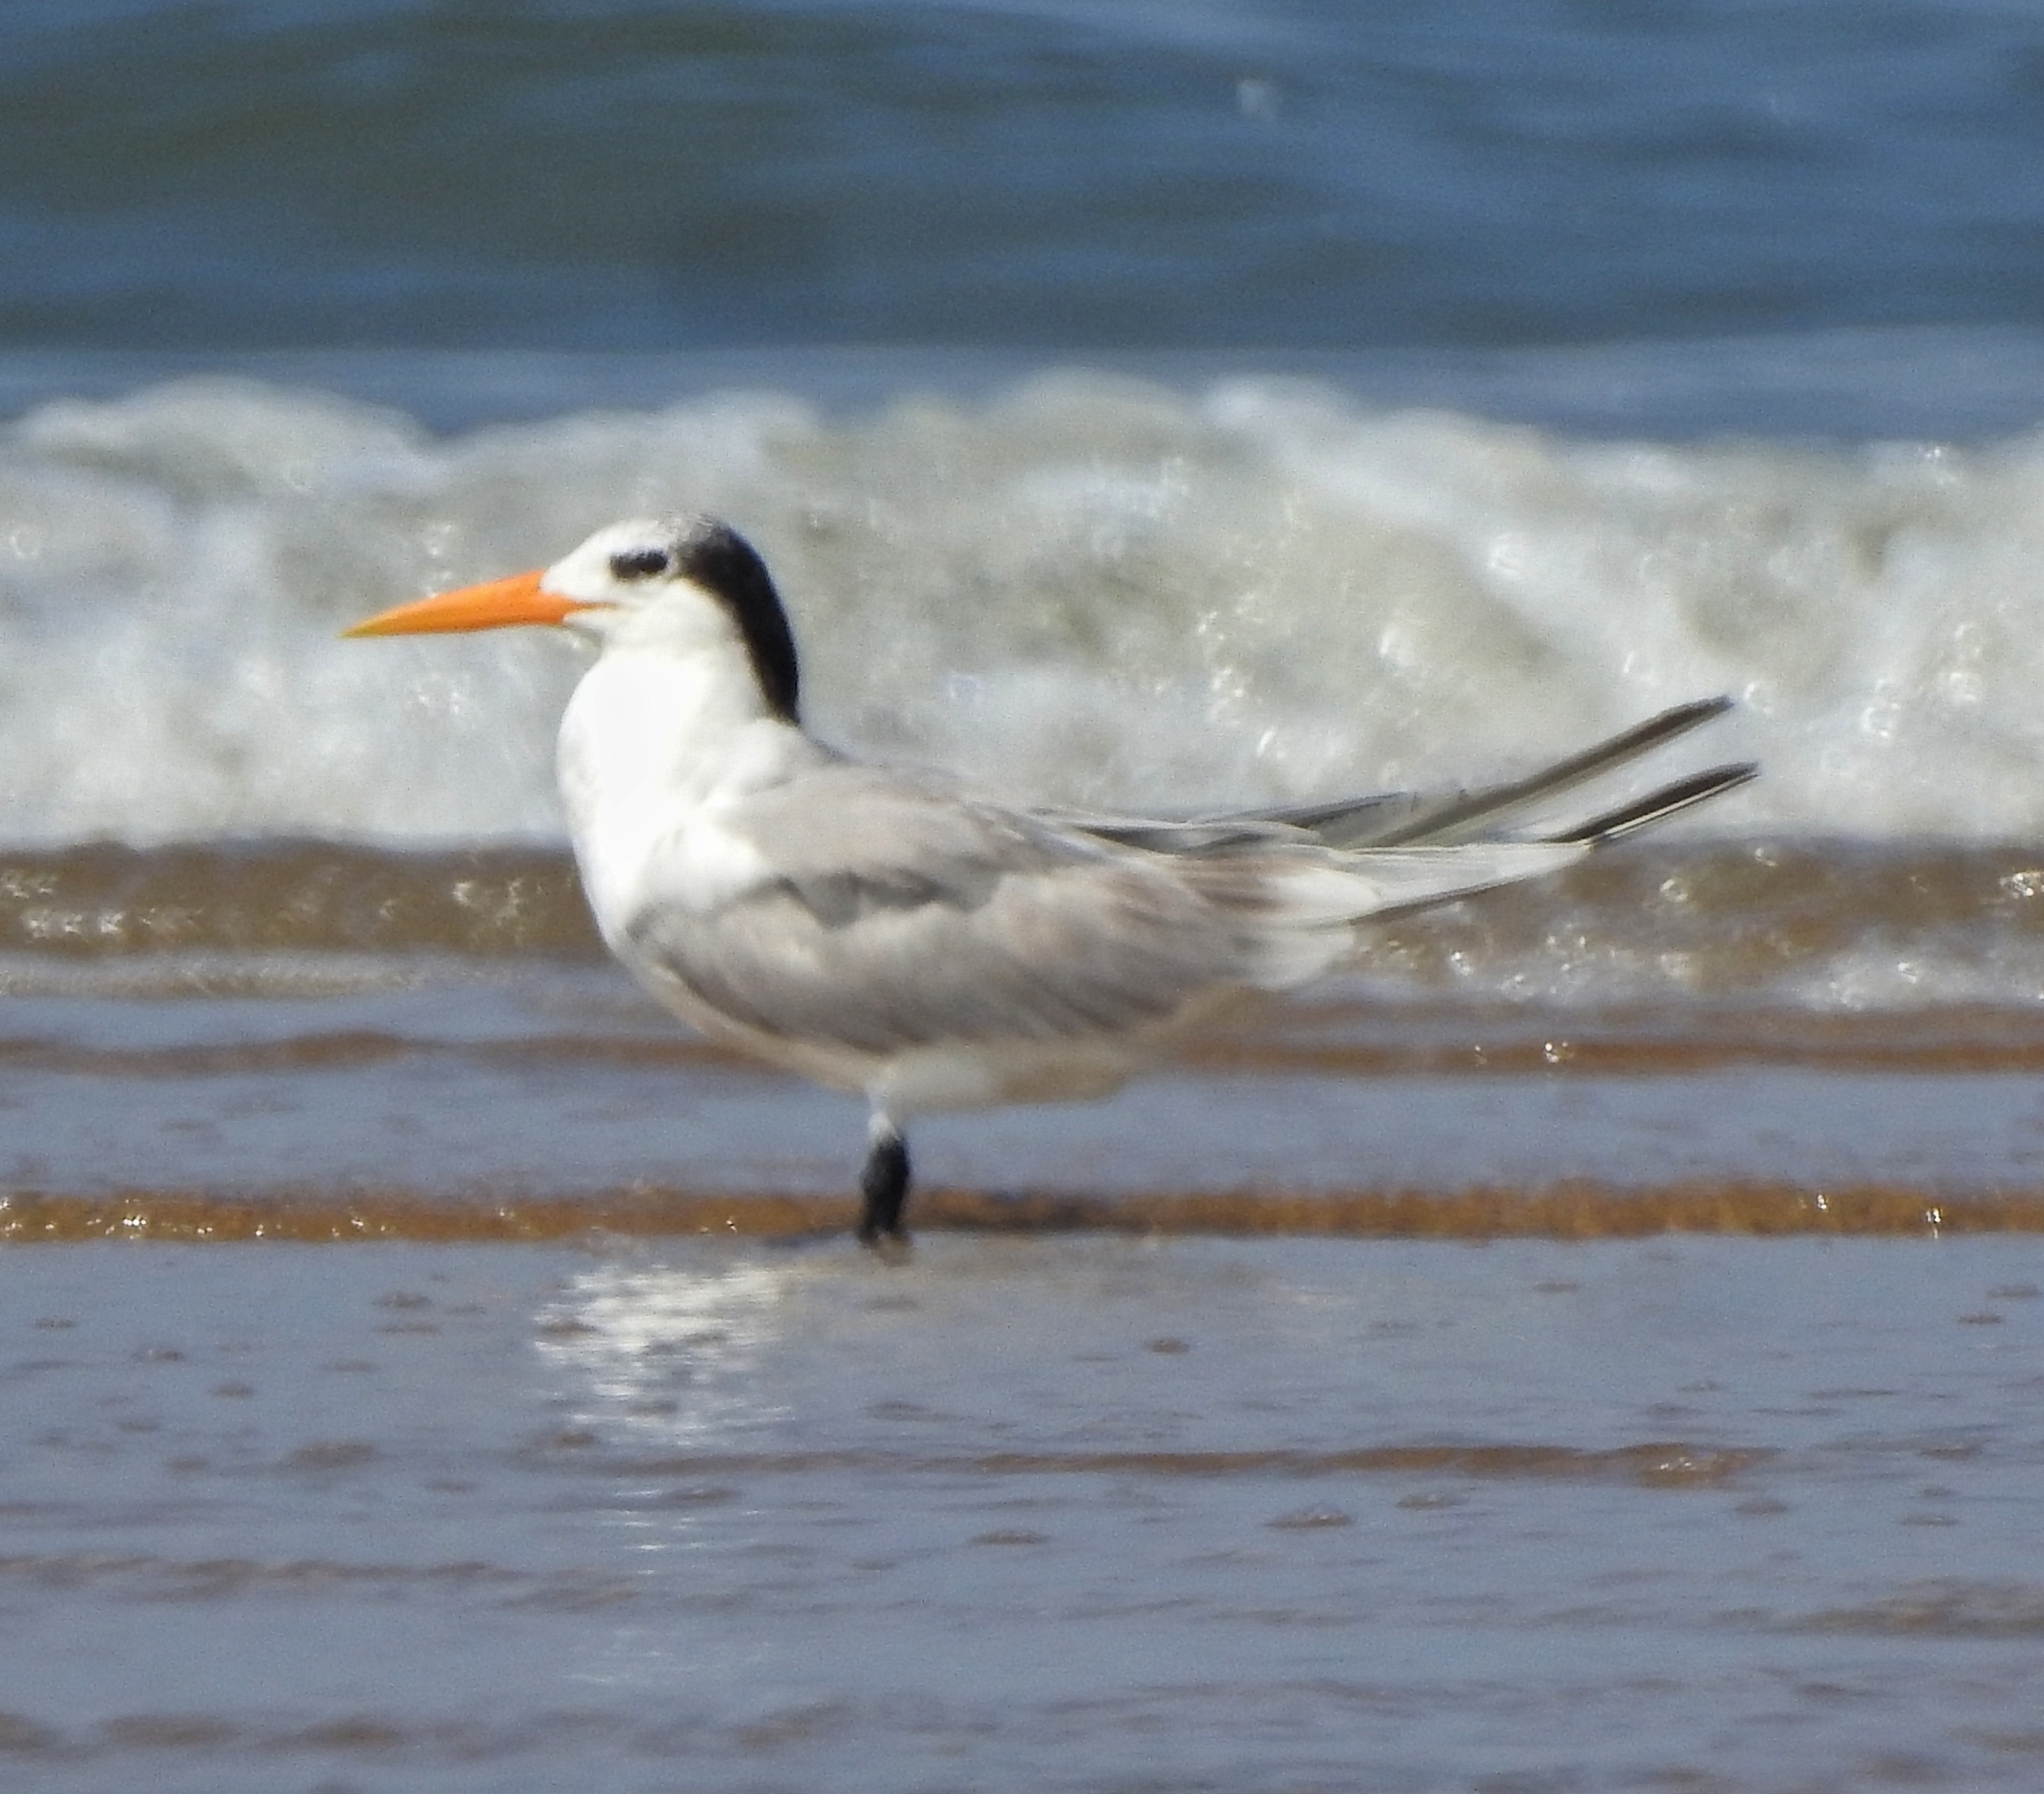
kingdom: Animalia
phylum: Chordata
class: Aves
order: Charadriiformes
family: Laridae
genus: Thalasseus
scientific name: Thalasseus bengalensis
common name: Lesser crested tern
